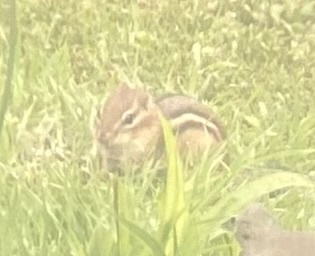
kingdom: Animalia
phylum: Chordata
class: Mammalia
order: Rodentia
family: Sciuridae
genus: Tamias
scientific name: Tamias striatus
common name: Eastern chipmunk
